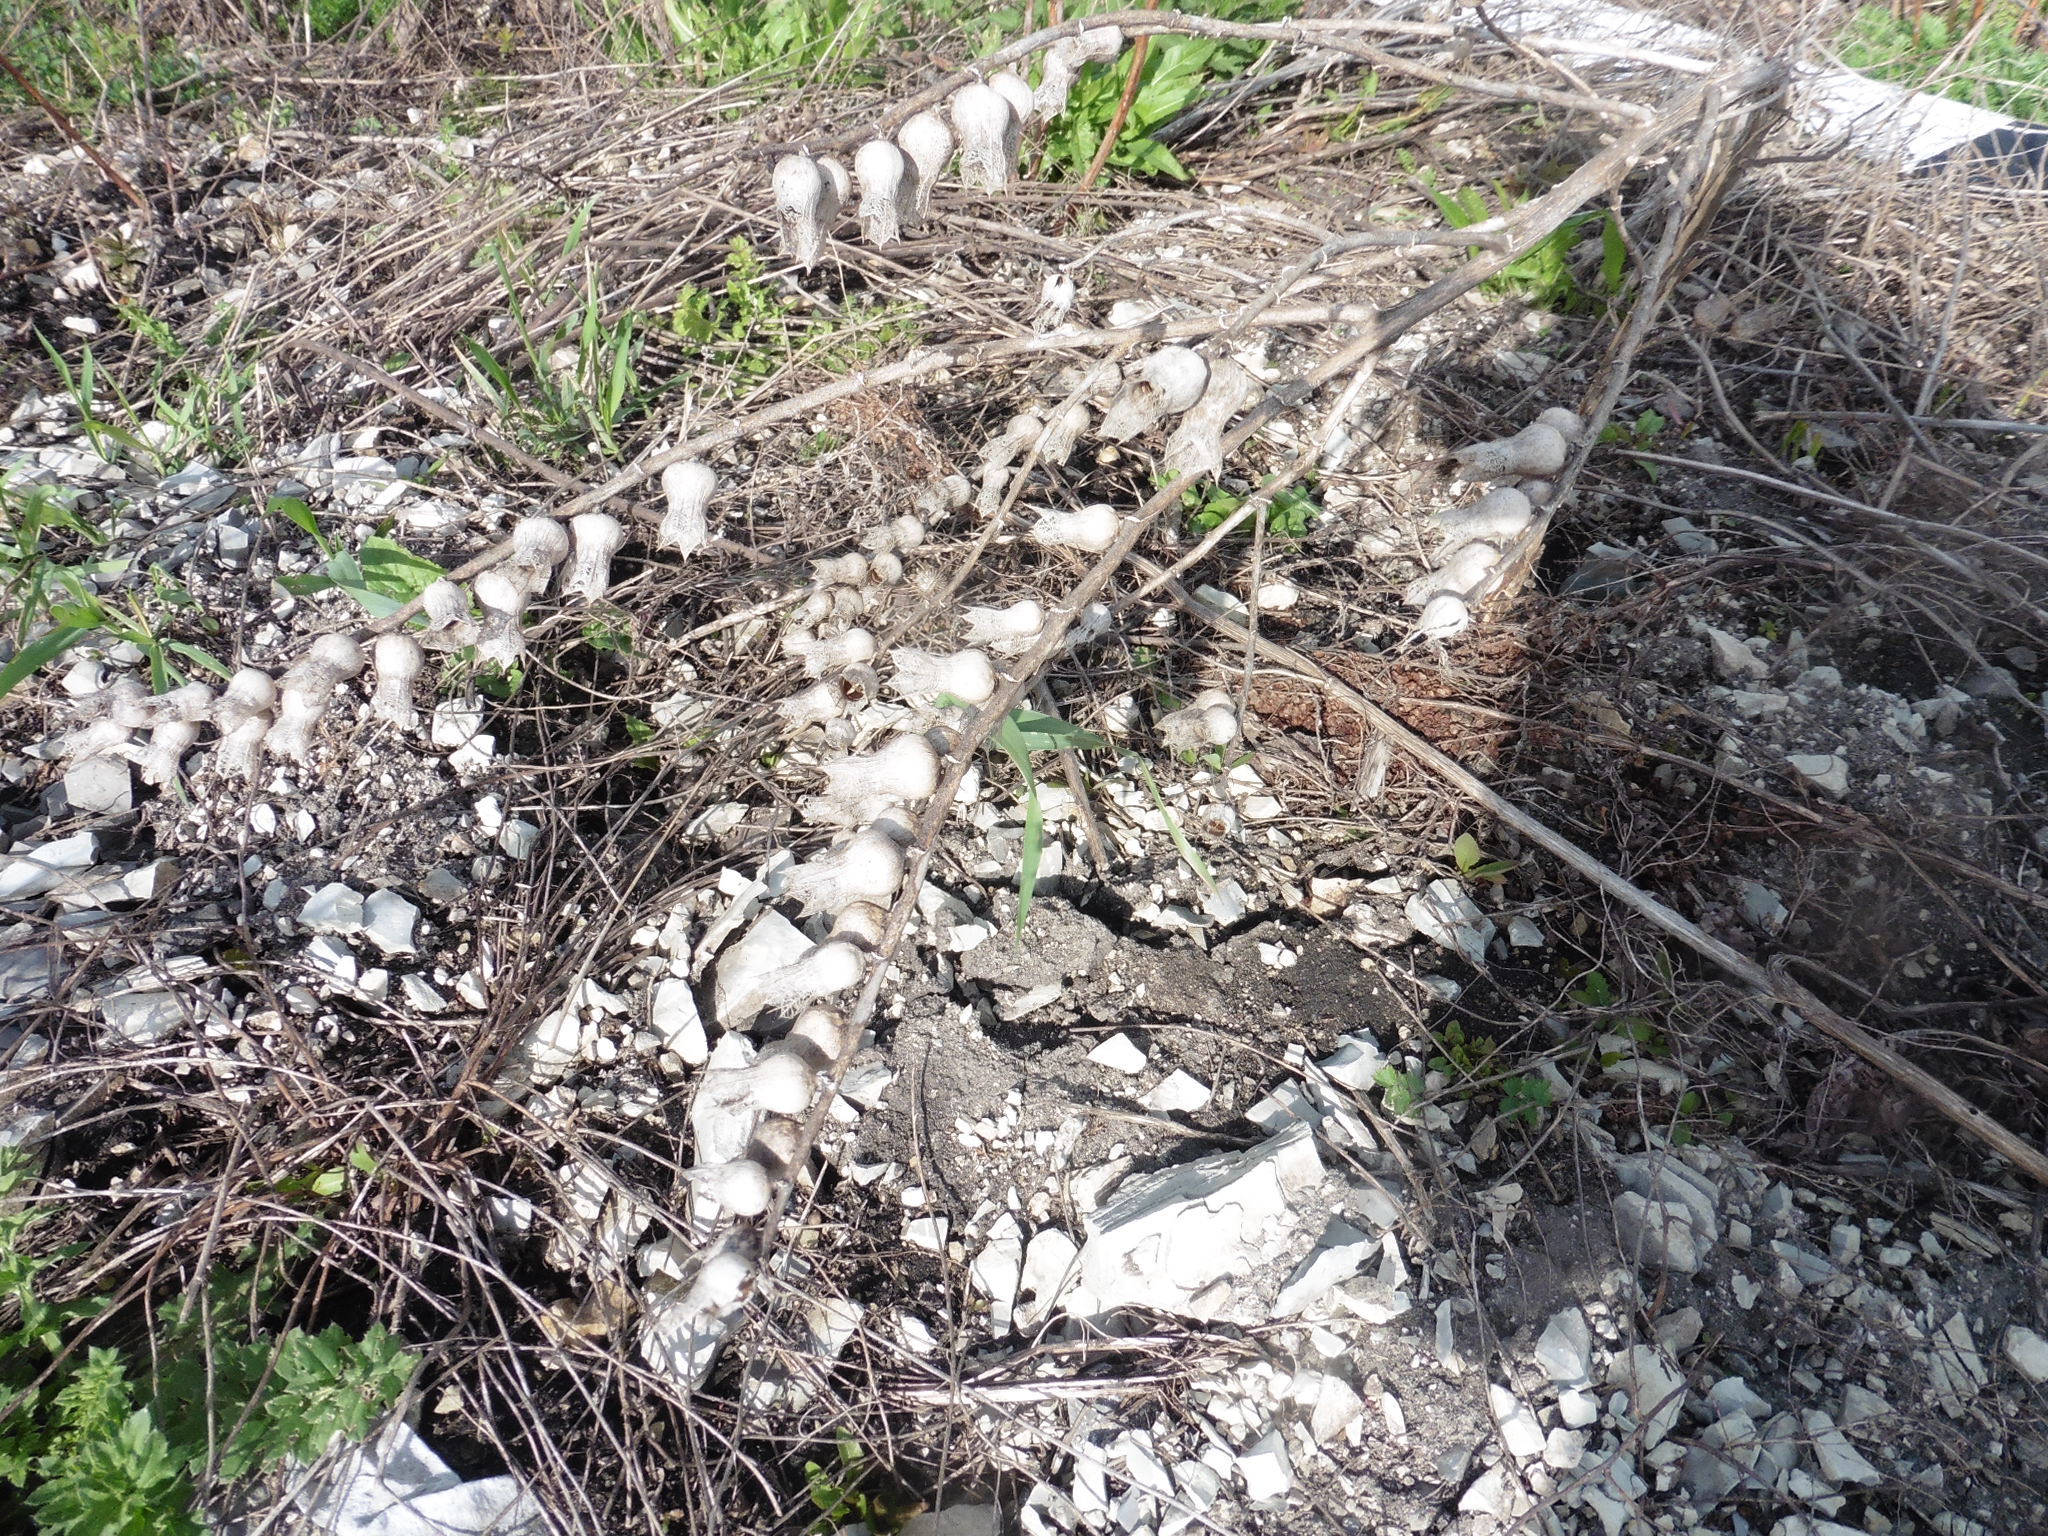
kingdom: Plantae
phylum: Tracheophyta
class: Magnoliopsida
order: Solanales
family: Solanaceae
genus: Hyoscyamus
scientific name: Hyoscyamus niger
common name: Henbane
